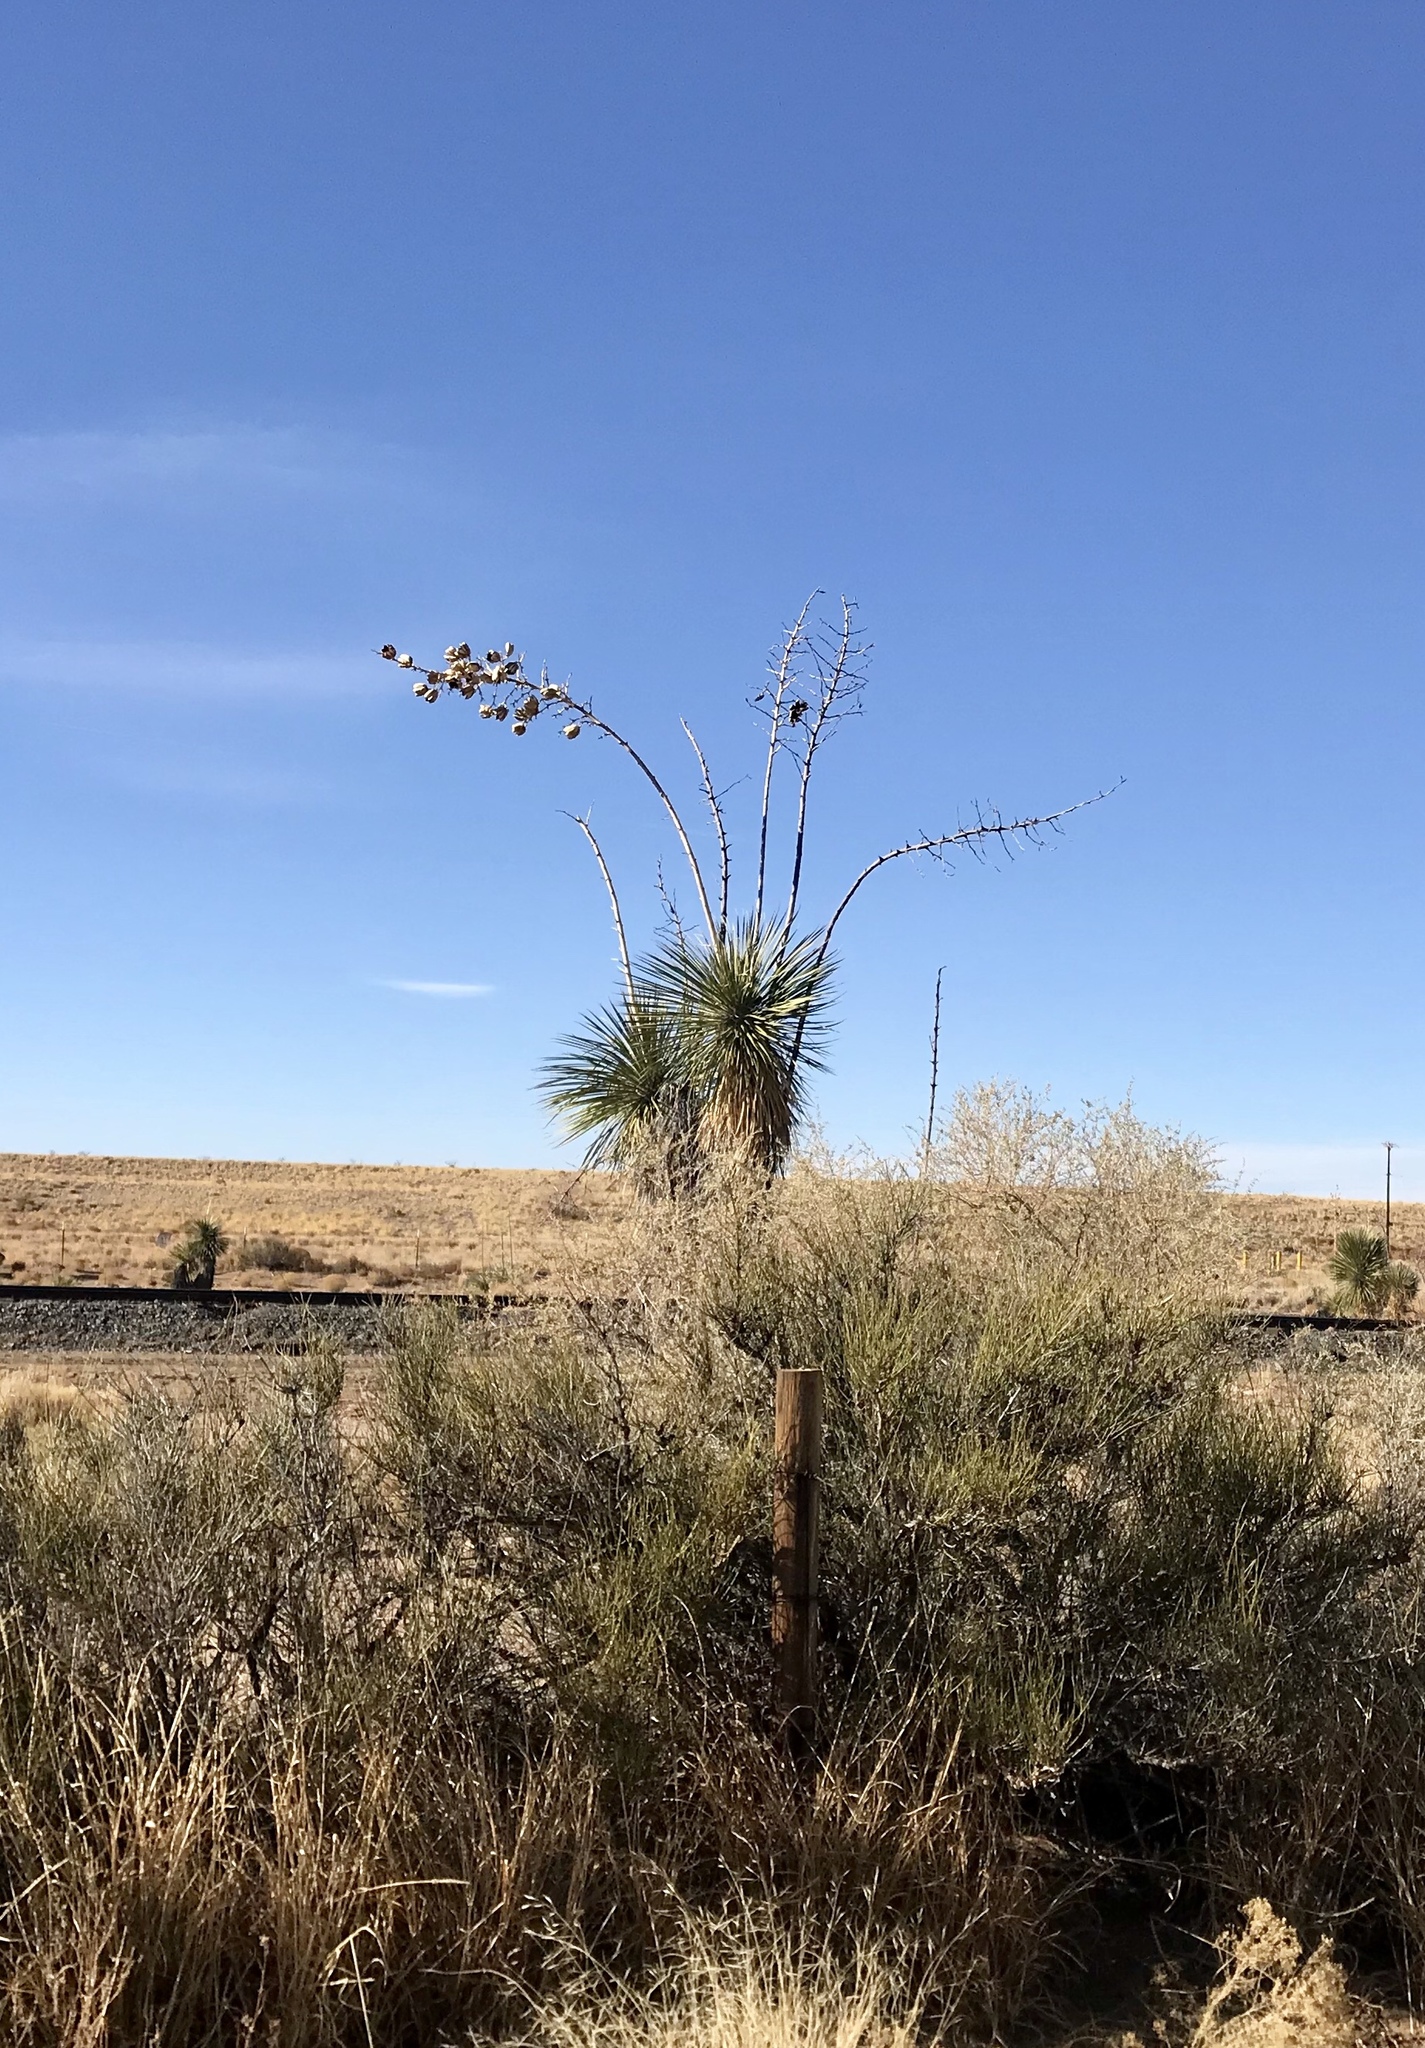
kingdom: Plantae
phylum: Tracheophyta
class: Liliopsida
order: Asparagales
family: Asparagaceae
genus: Yucca
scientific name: Yucca elata
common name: Palmella
